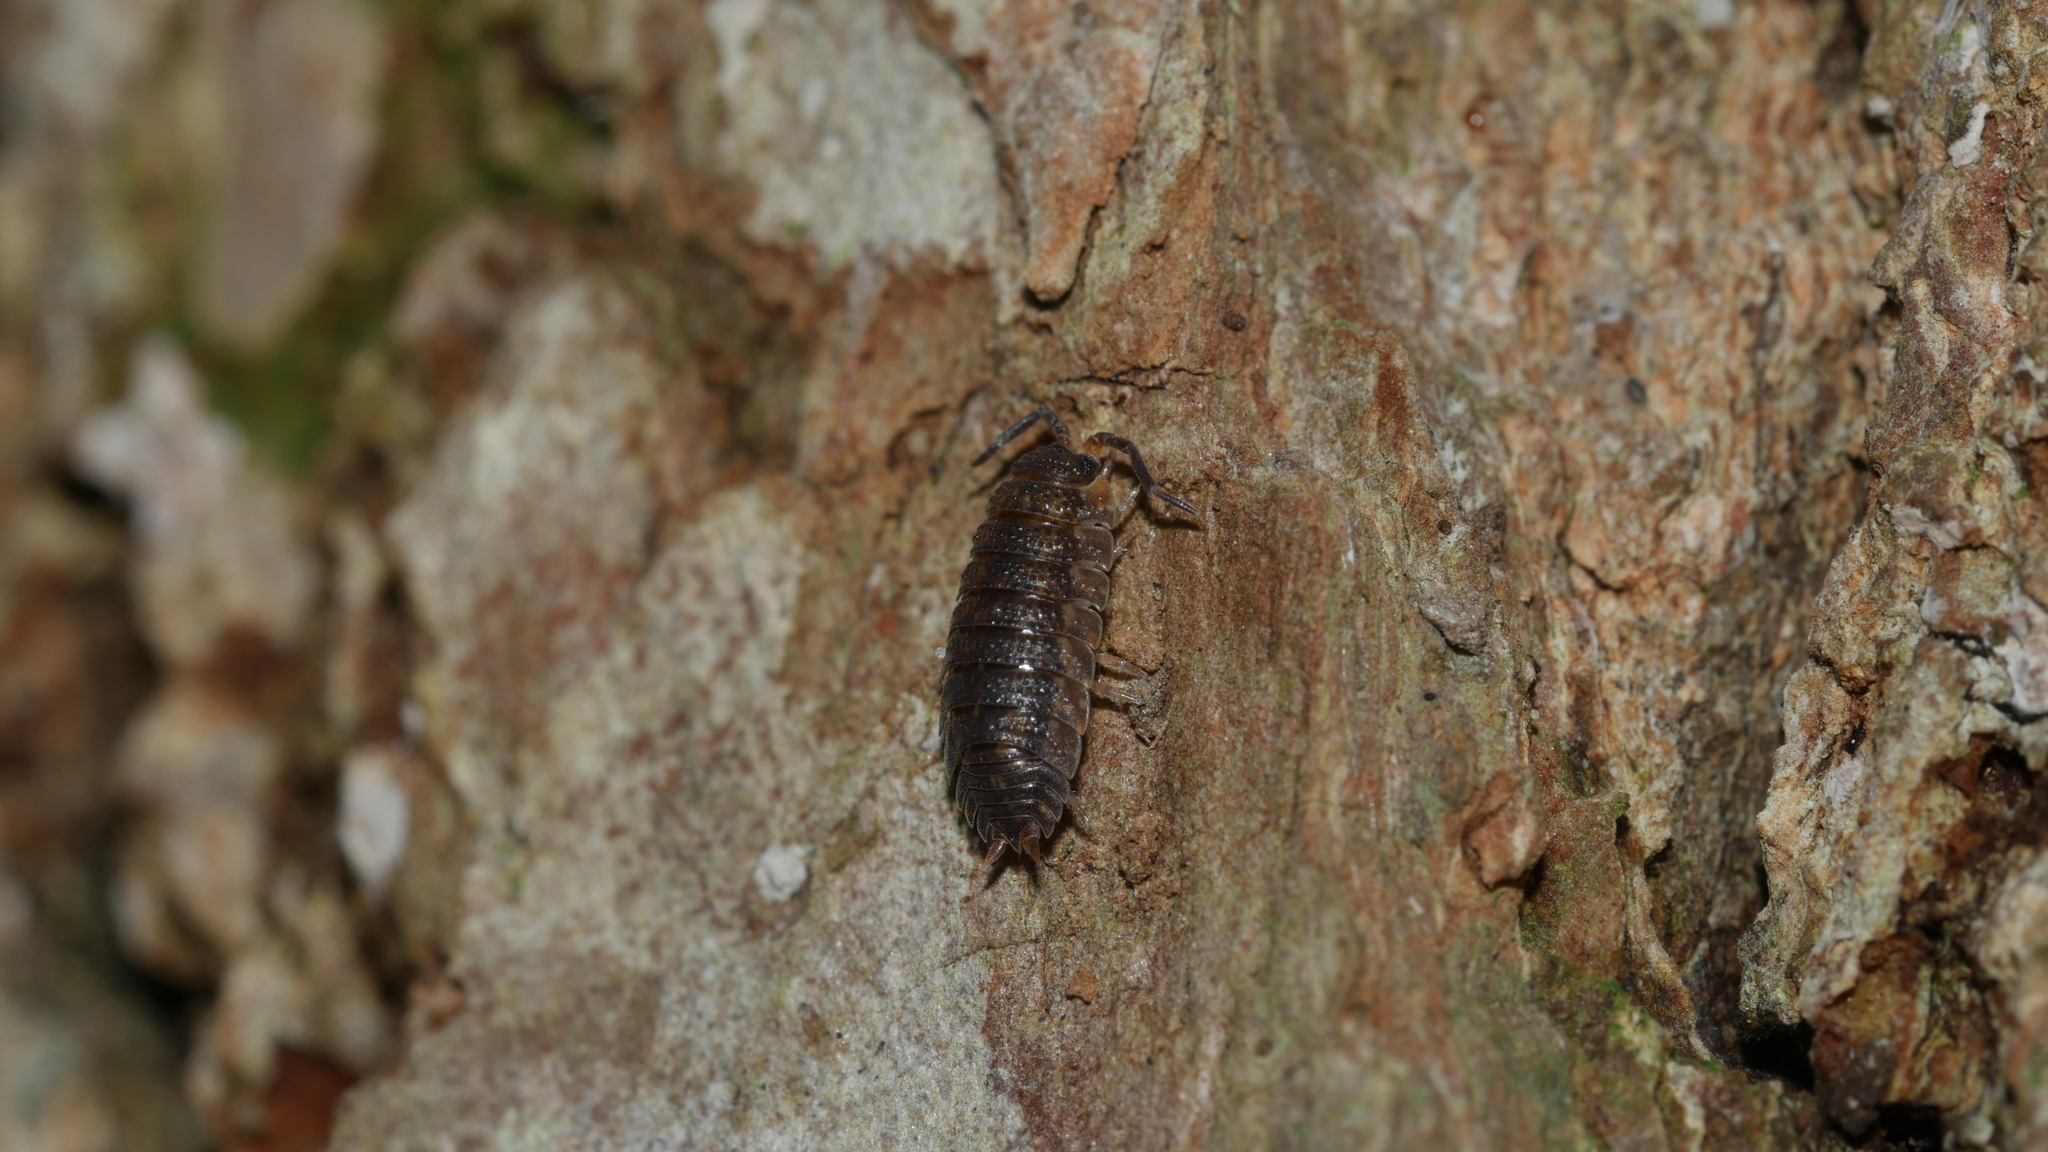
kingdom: Animalia
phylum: Arthropoda
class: Malacostraca
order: Isopoda
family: Porcellionidae
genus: Porcellio
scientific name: Porcellio scaber
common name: Common rough woodlouse
